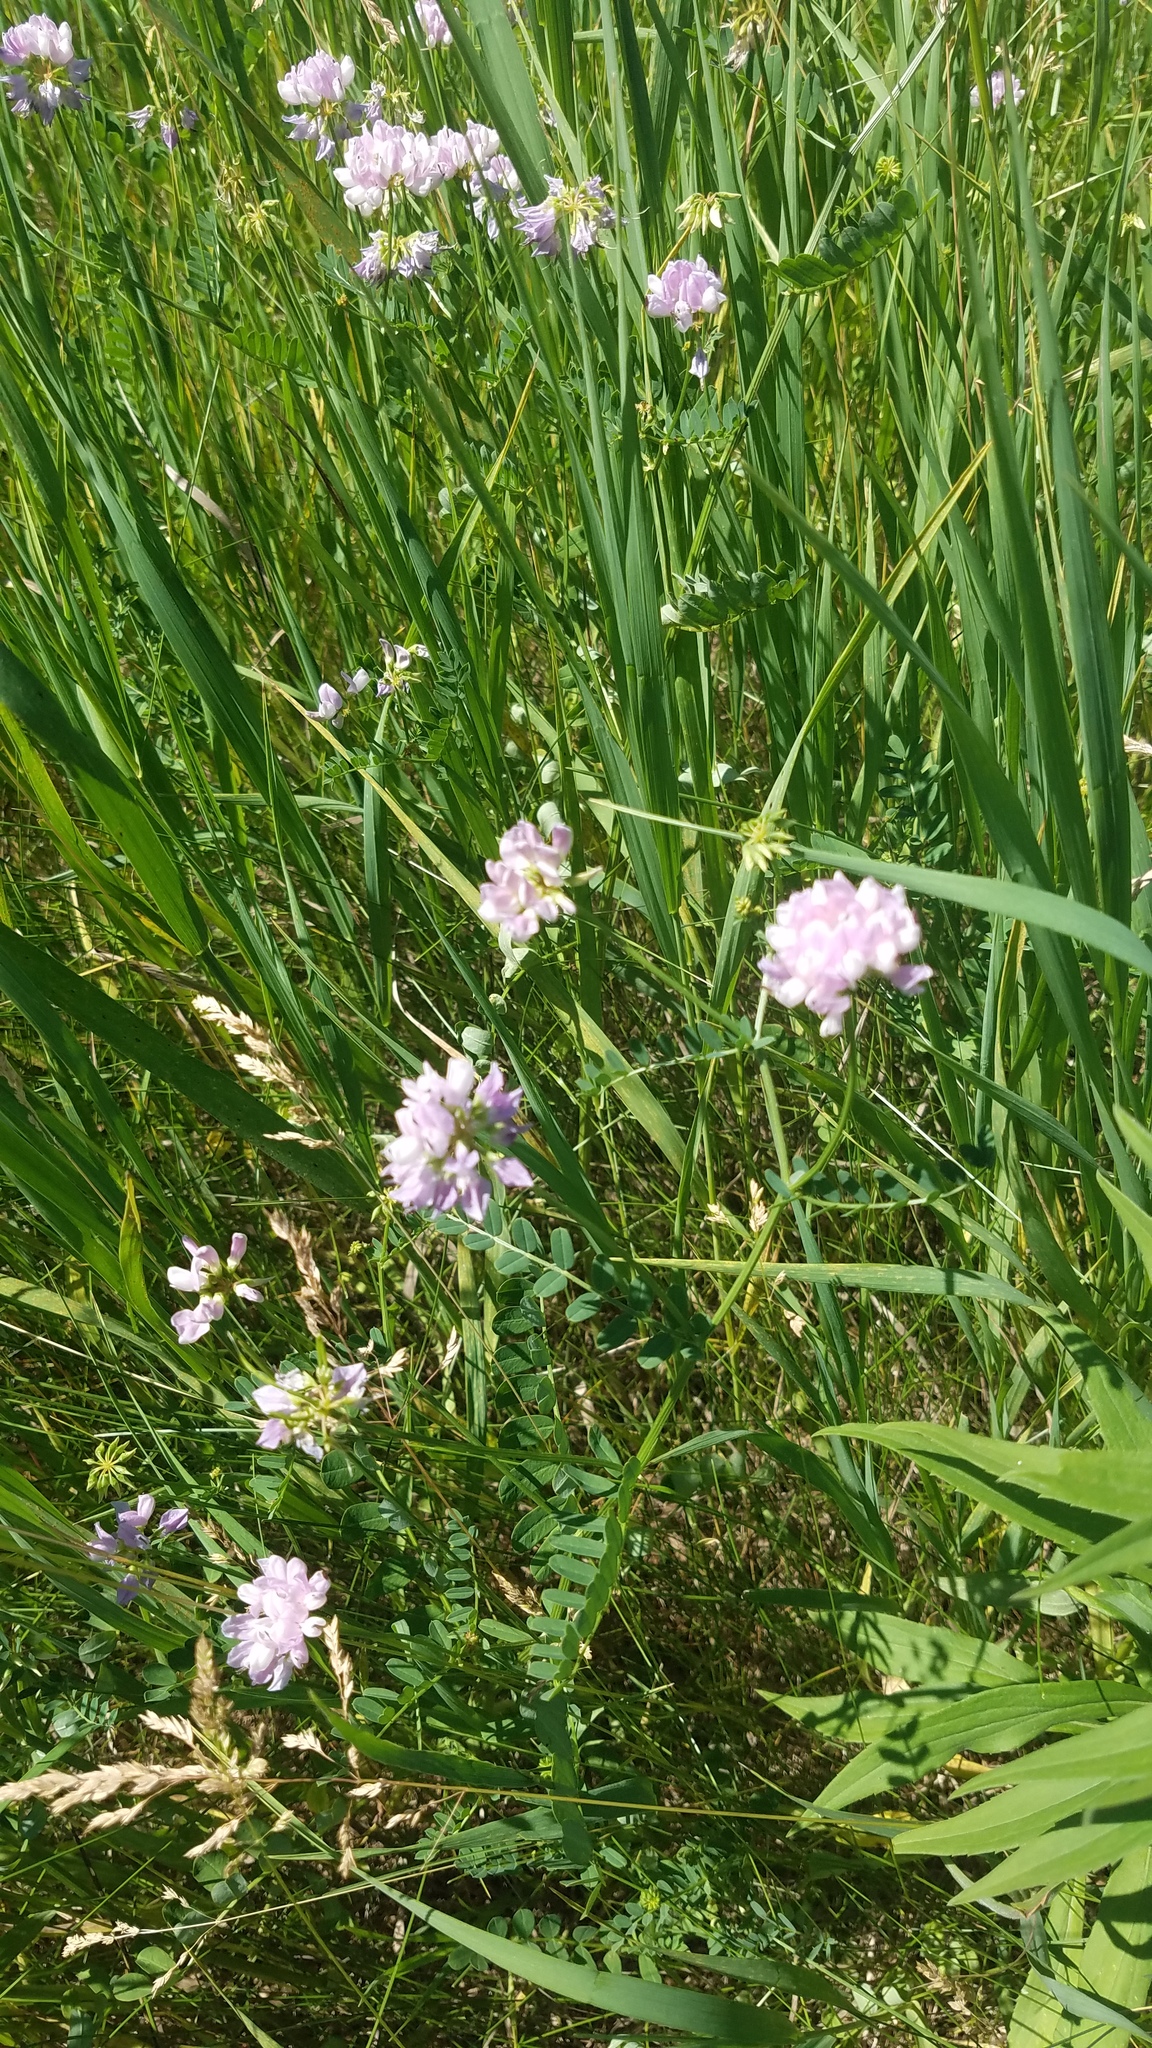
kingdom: Plantae
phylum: Tracheophyta
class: Magnoliopsida
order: Fabales
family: Fabaceae
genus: Coronilla
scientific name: Coronilla varia
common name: Crownvetch
